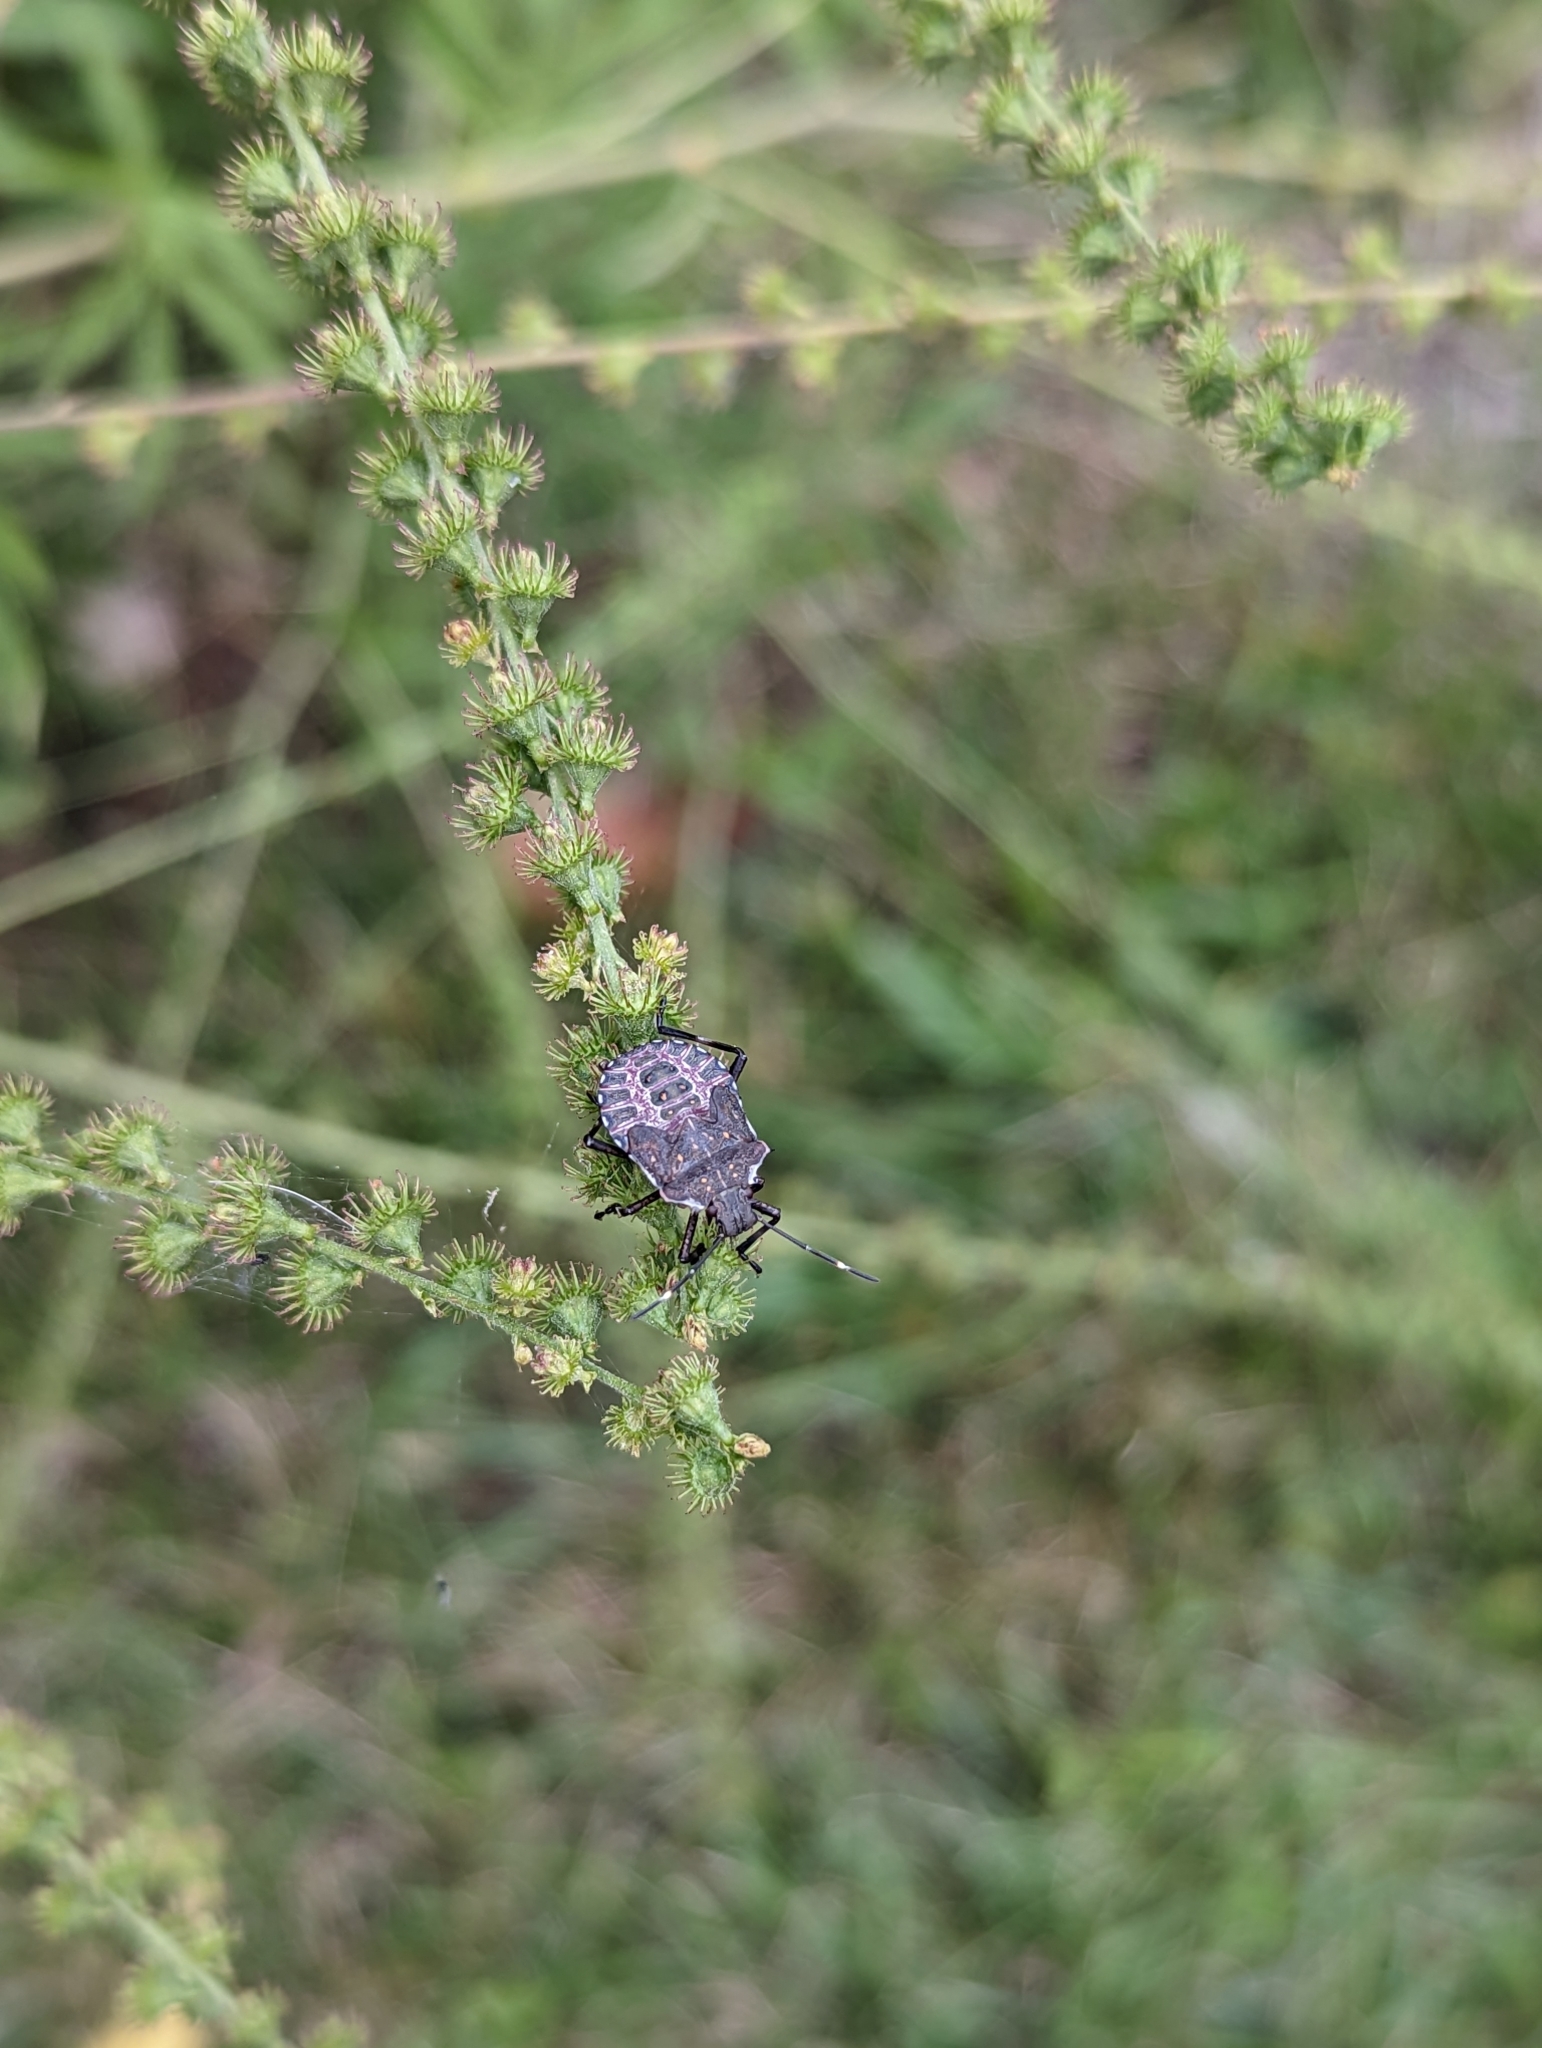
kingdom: Animalia
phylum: Arthropoda
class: Insecta
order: Hemiptera
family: Pentatomidae
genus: Halyomorpha
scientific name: Halyomorpha halys
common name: Brown marmorated stink bug
